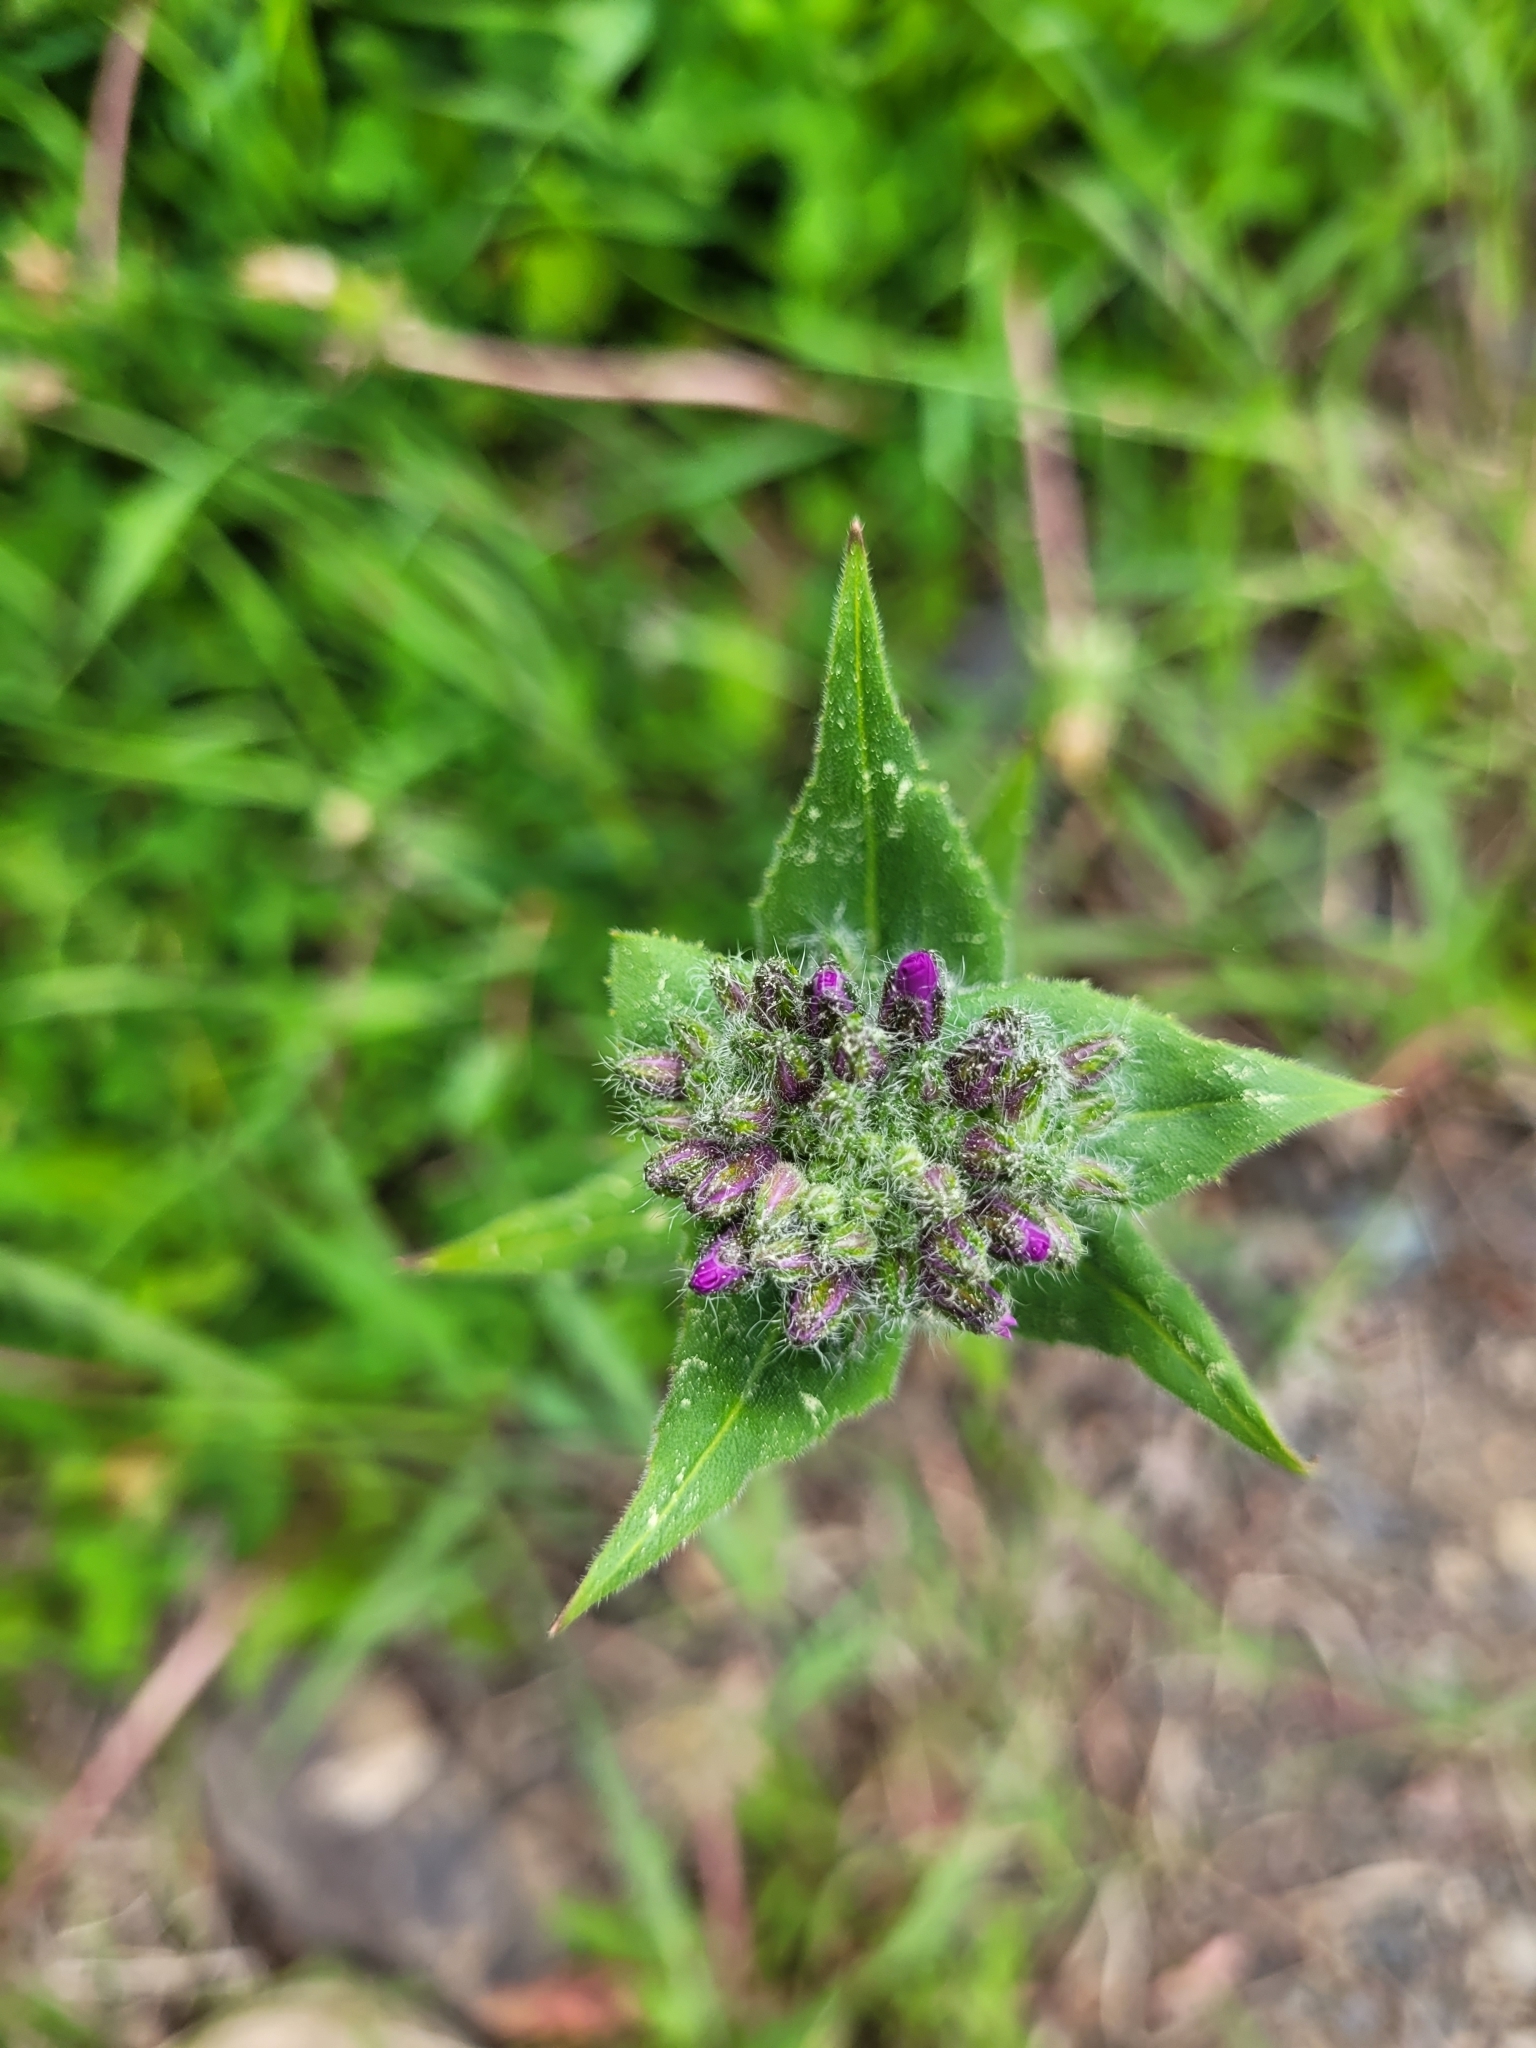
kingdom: Plantae
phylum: Tracheophyta
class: Magnoliopsida
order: Brassicales
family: Brassicaceae
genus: Hesperis
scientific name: Hesperis matronalis
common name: Dame's-violet
